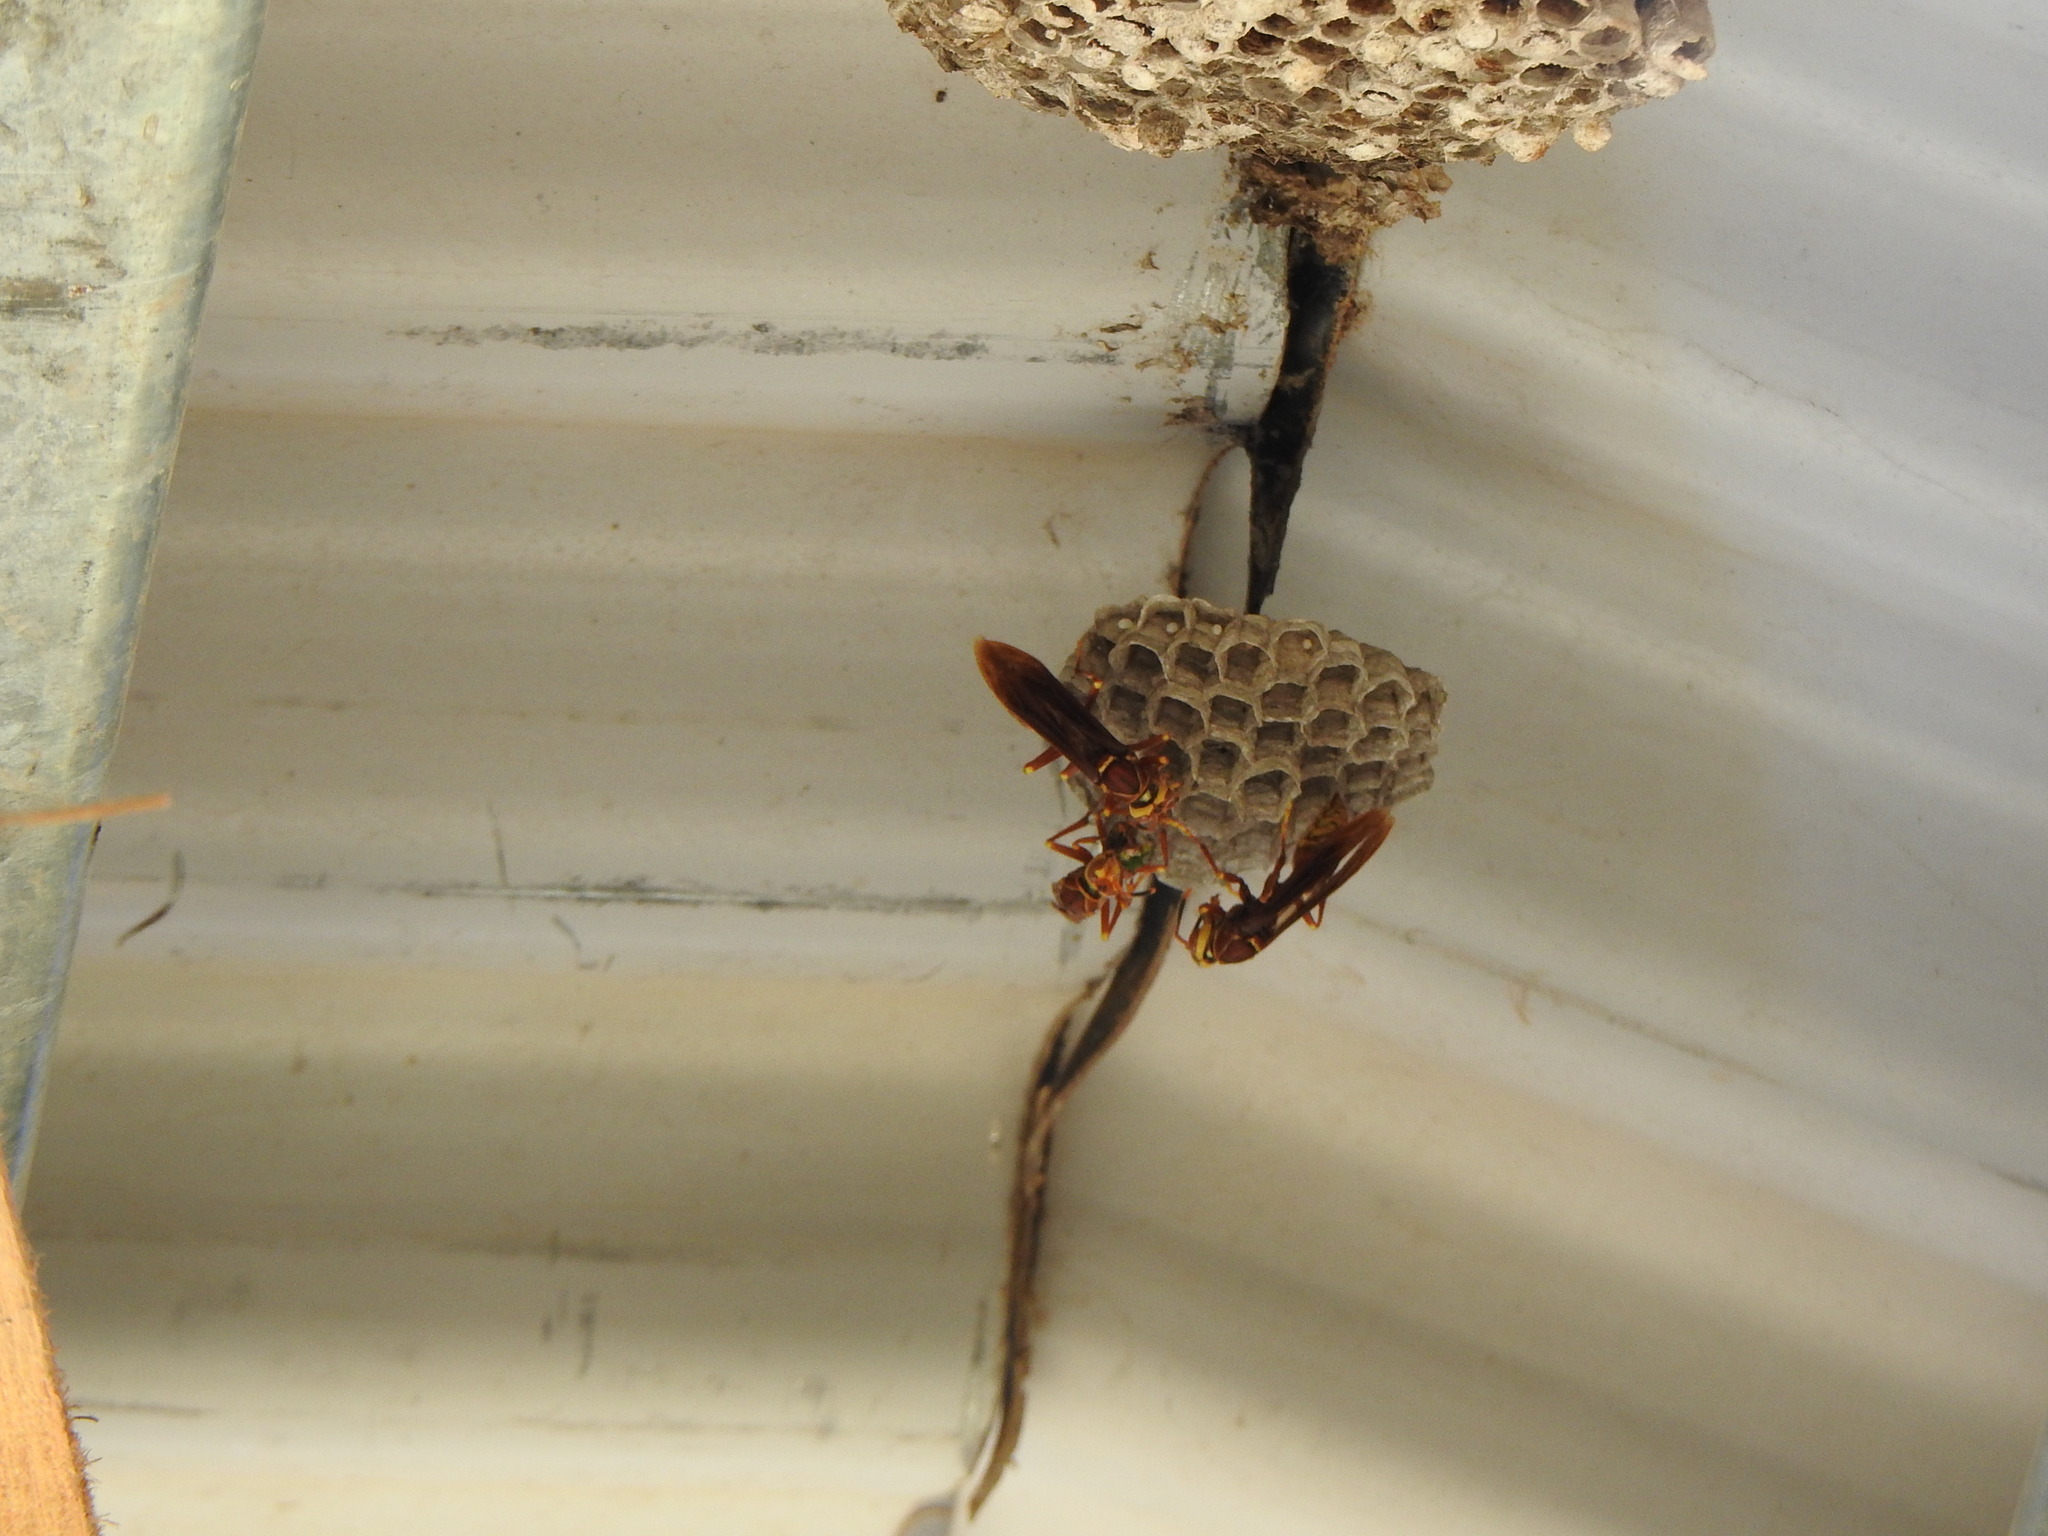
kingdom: Animalia
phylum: Arthropoda
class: Insecta
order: Hymenoptera
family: Eumenidae
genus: Polistes
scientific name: Polistes cavapyta
